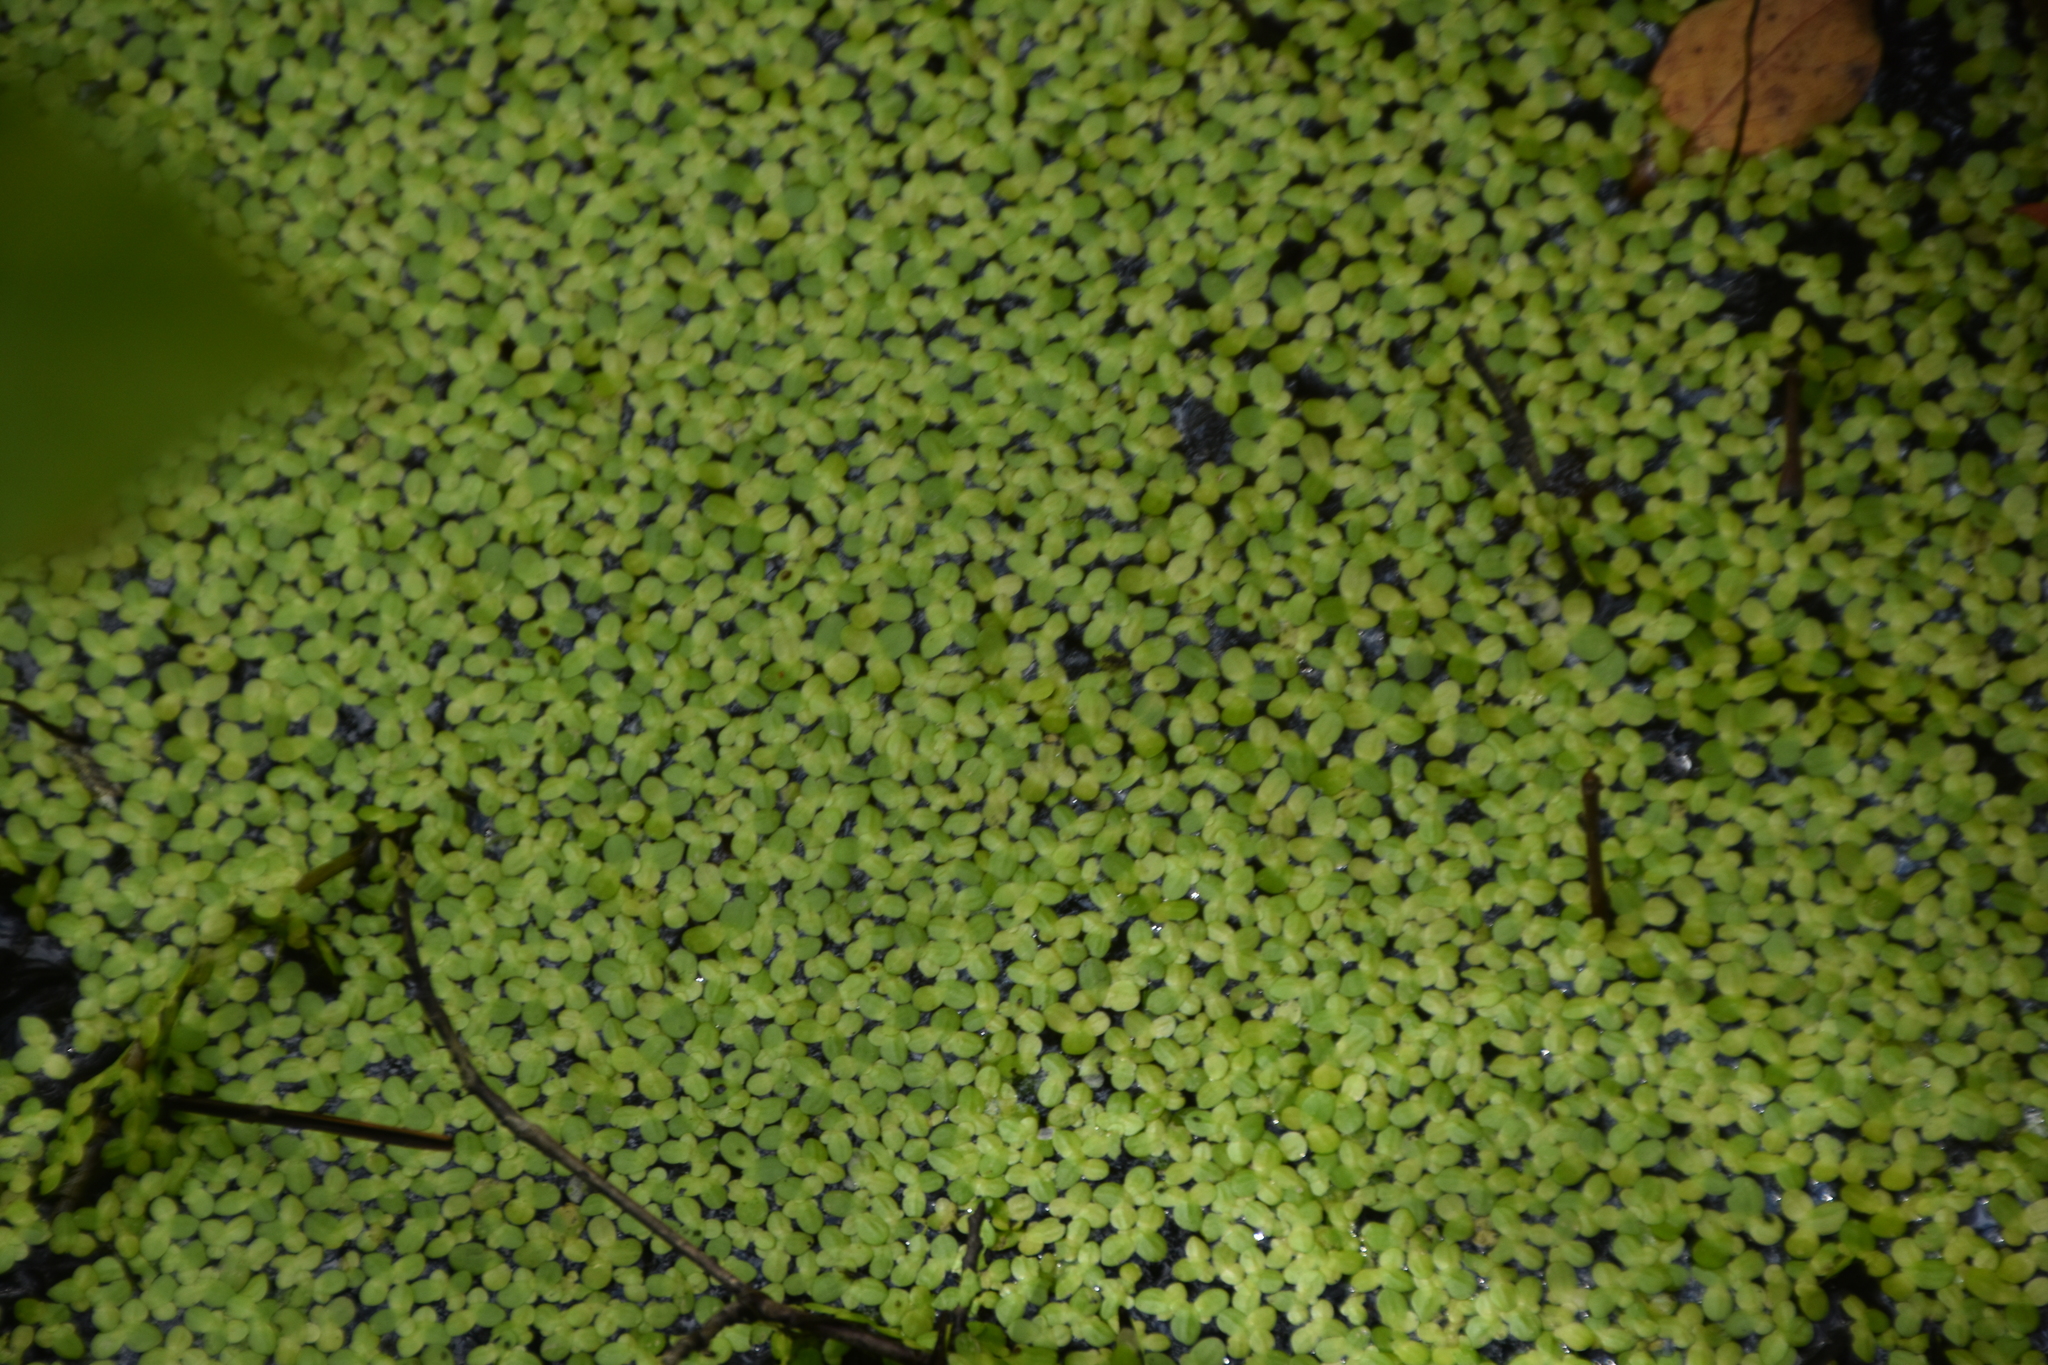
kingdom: Plantae
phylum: Tracheophyta
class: Liliopsida
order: Alismatales
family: Araceae
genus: Lemna
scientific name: Lemna minor
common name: Common duckweed
